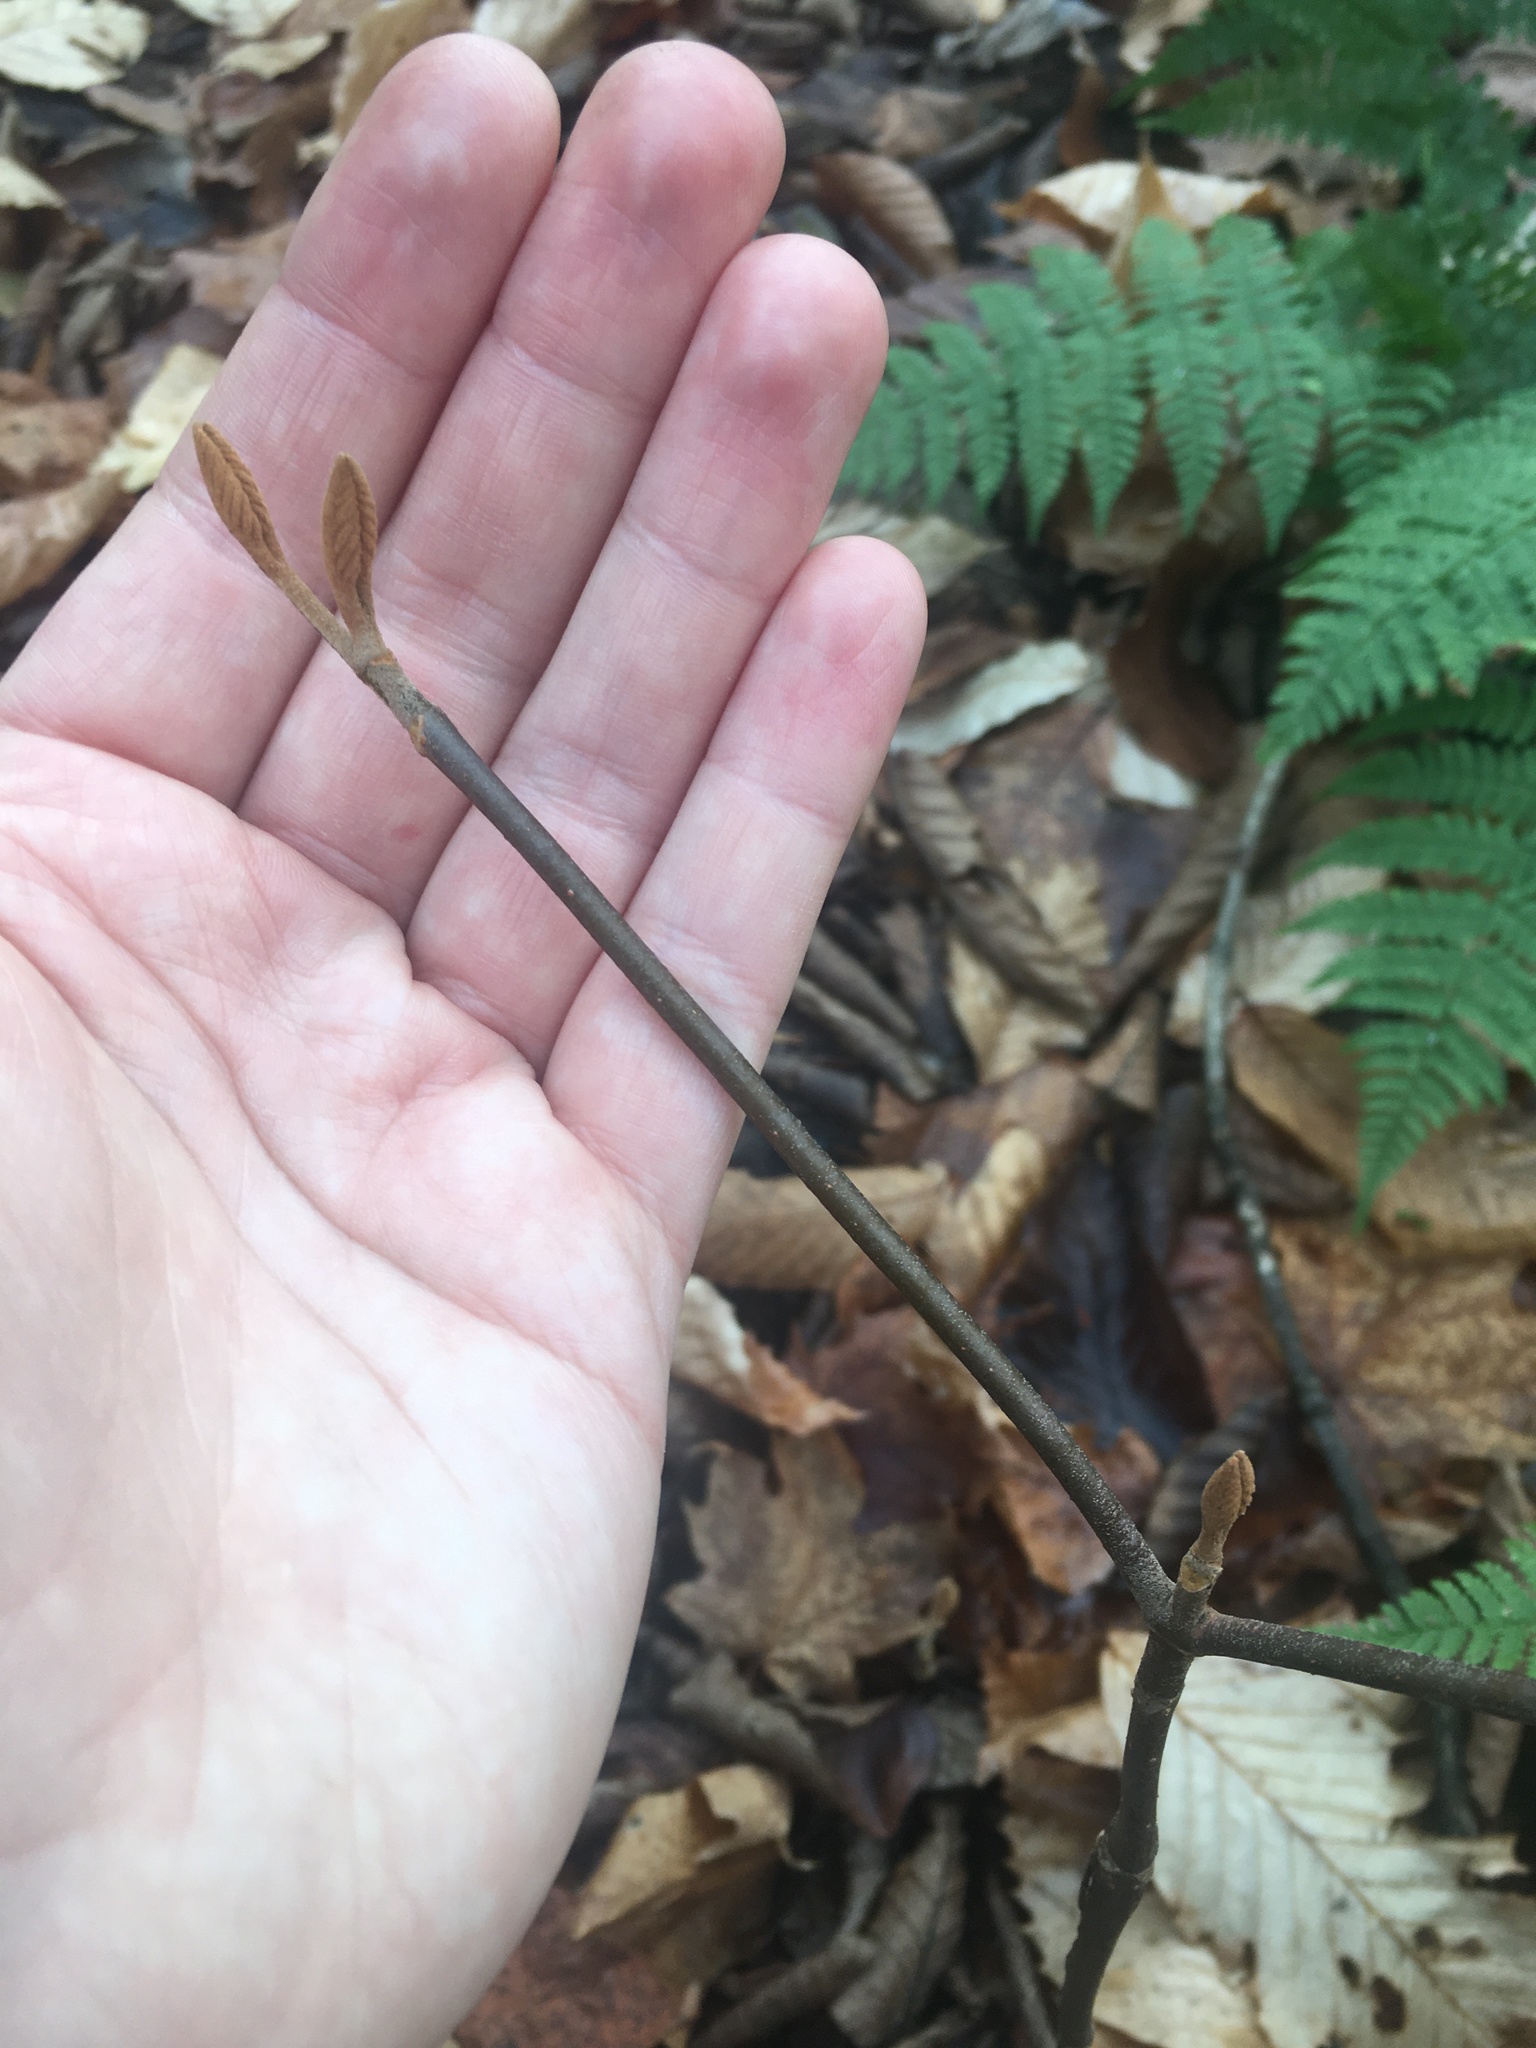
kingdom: Plantae
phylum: Tracheophyta
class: Magnoliopsida
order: Dipsacales
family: Viburnaceae
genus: Viburnum
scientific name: Viburnum lantanoides
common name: Hobblebush
